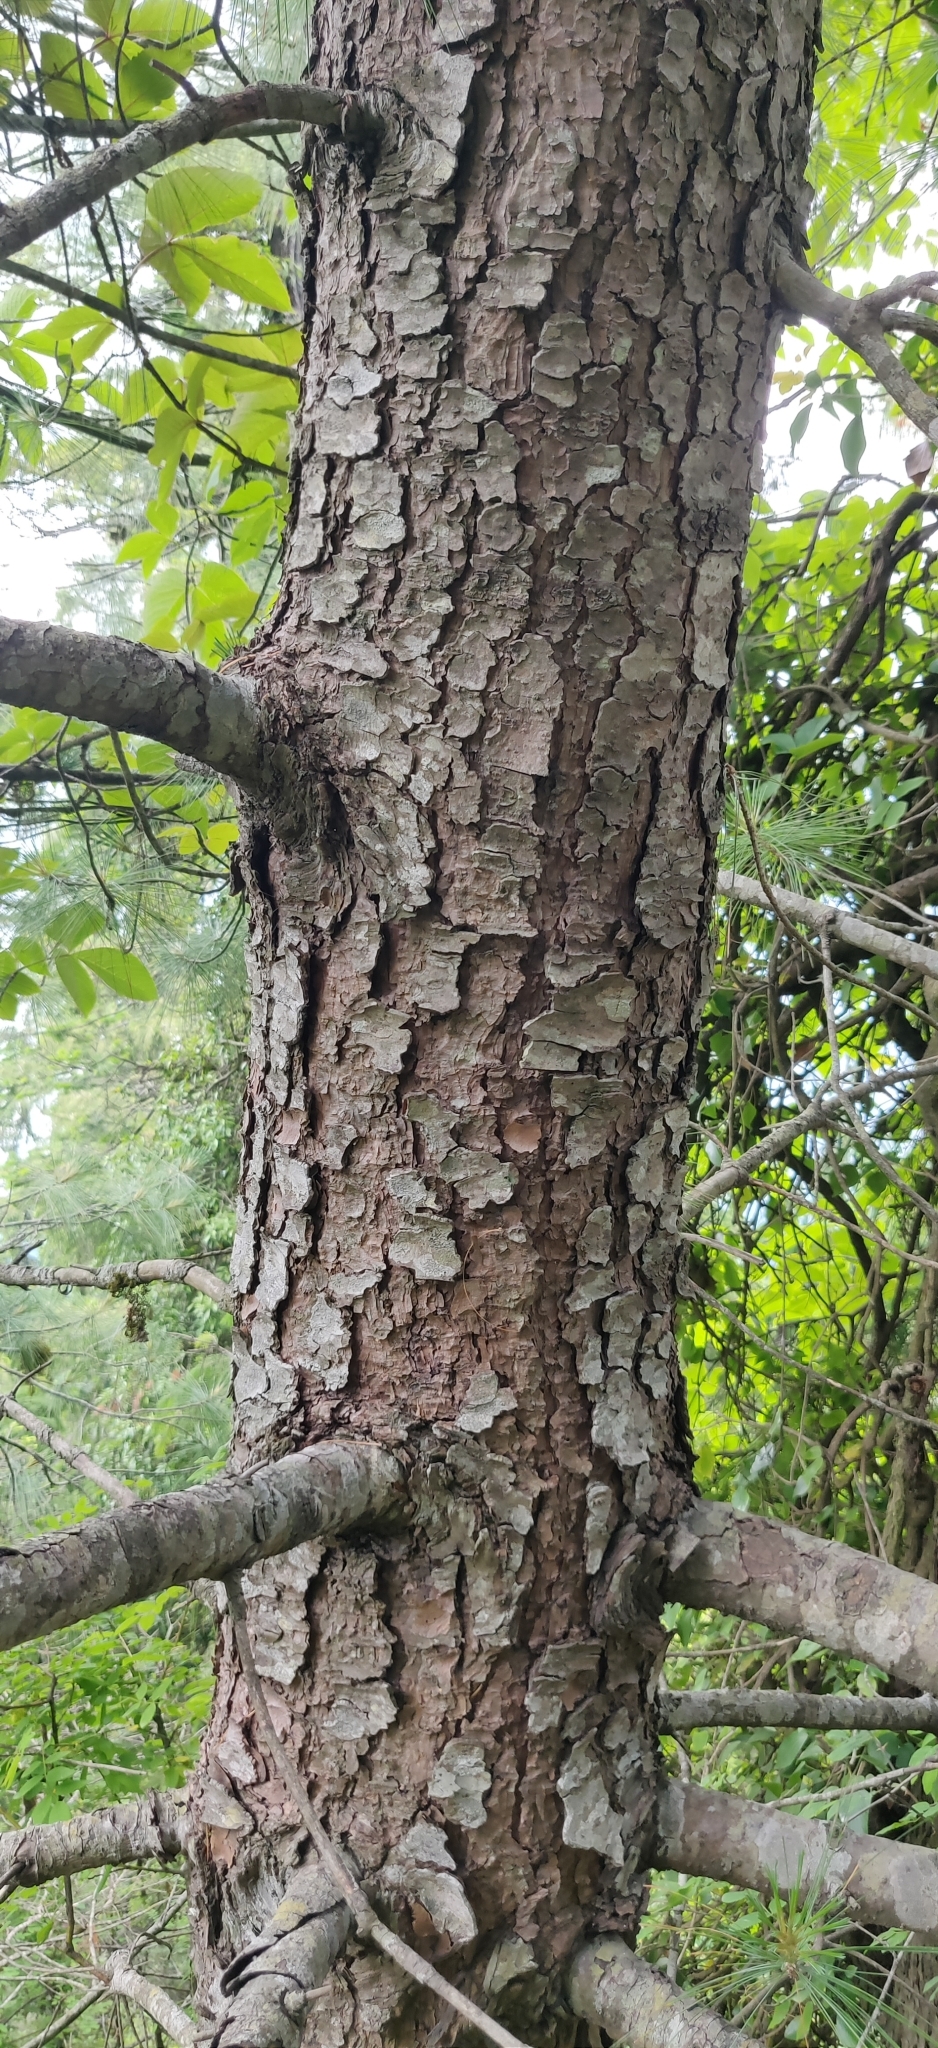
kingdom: Plantae
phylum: Tracheophyta
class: Pinopsida
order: Pinales
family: Pinaceae
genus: Pinus
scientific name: Pinus wallichiana
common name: Bhutan pine
